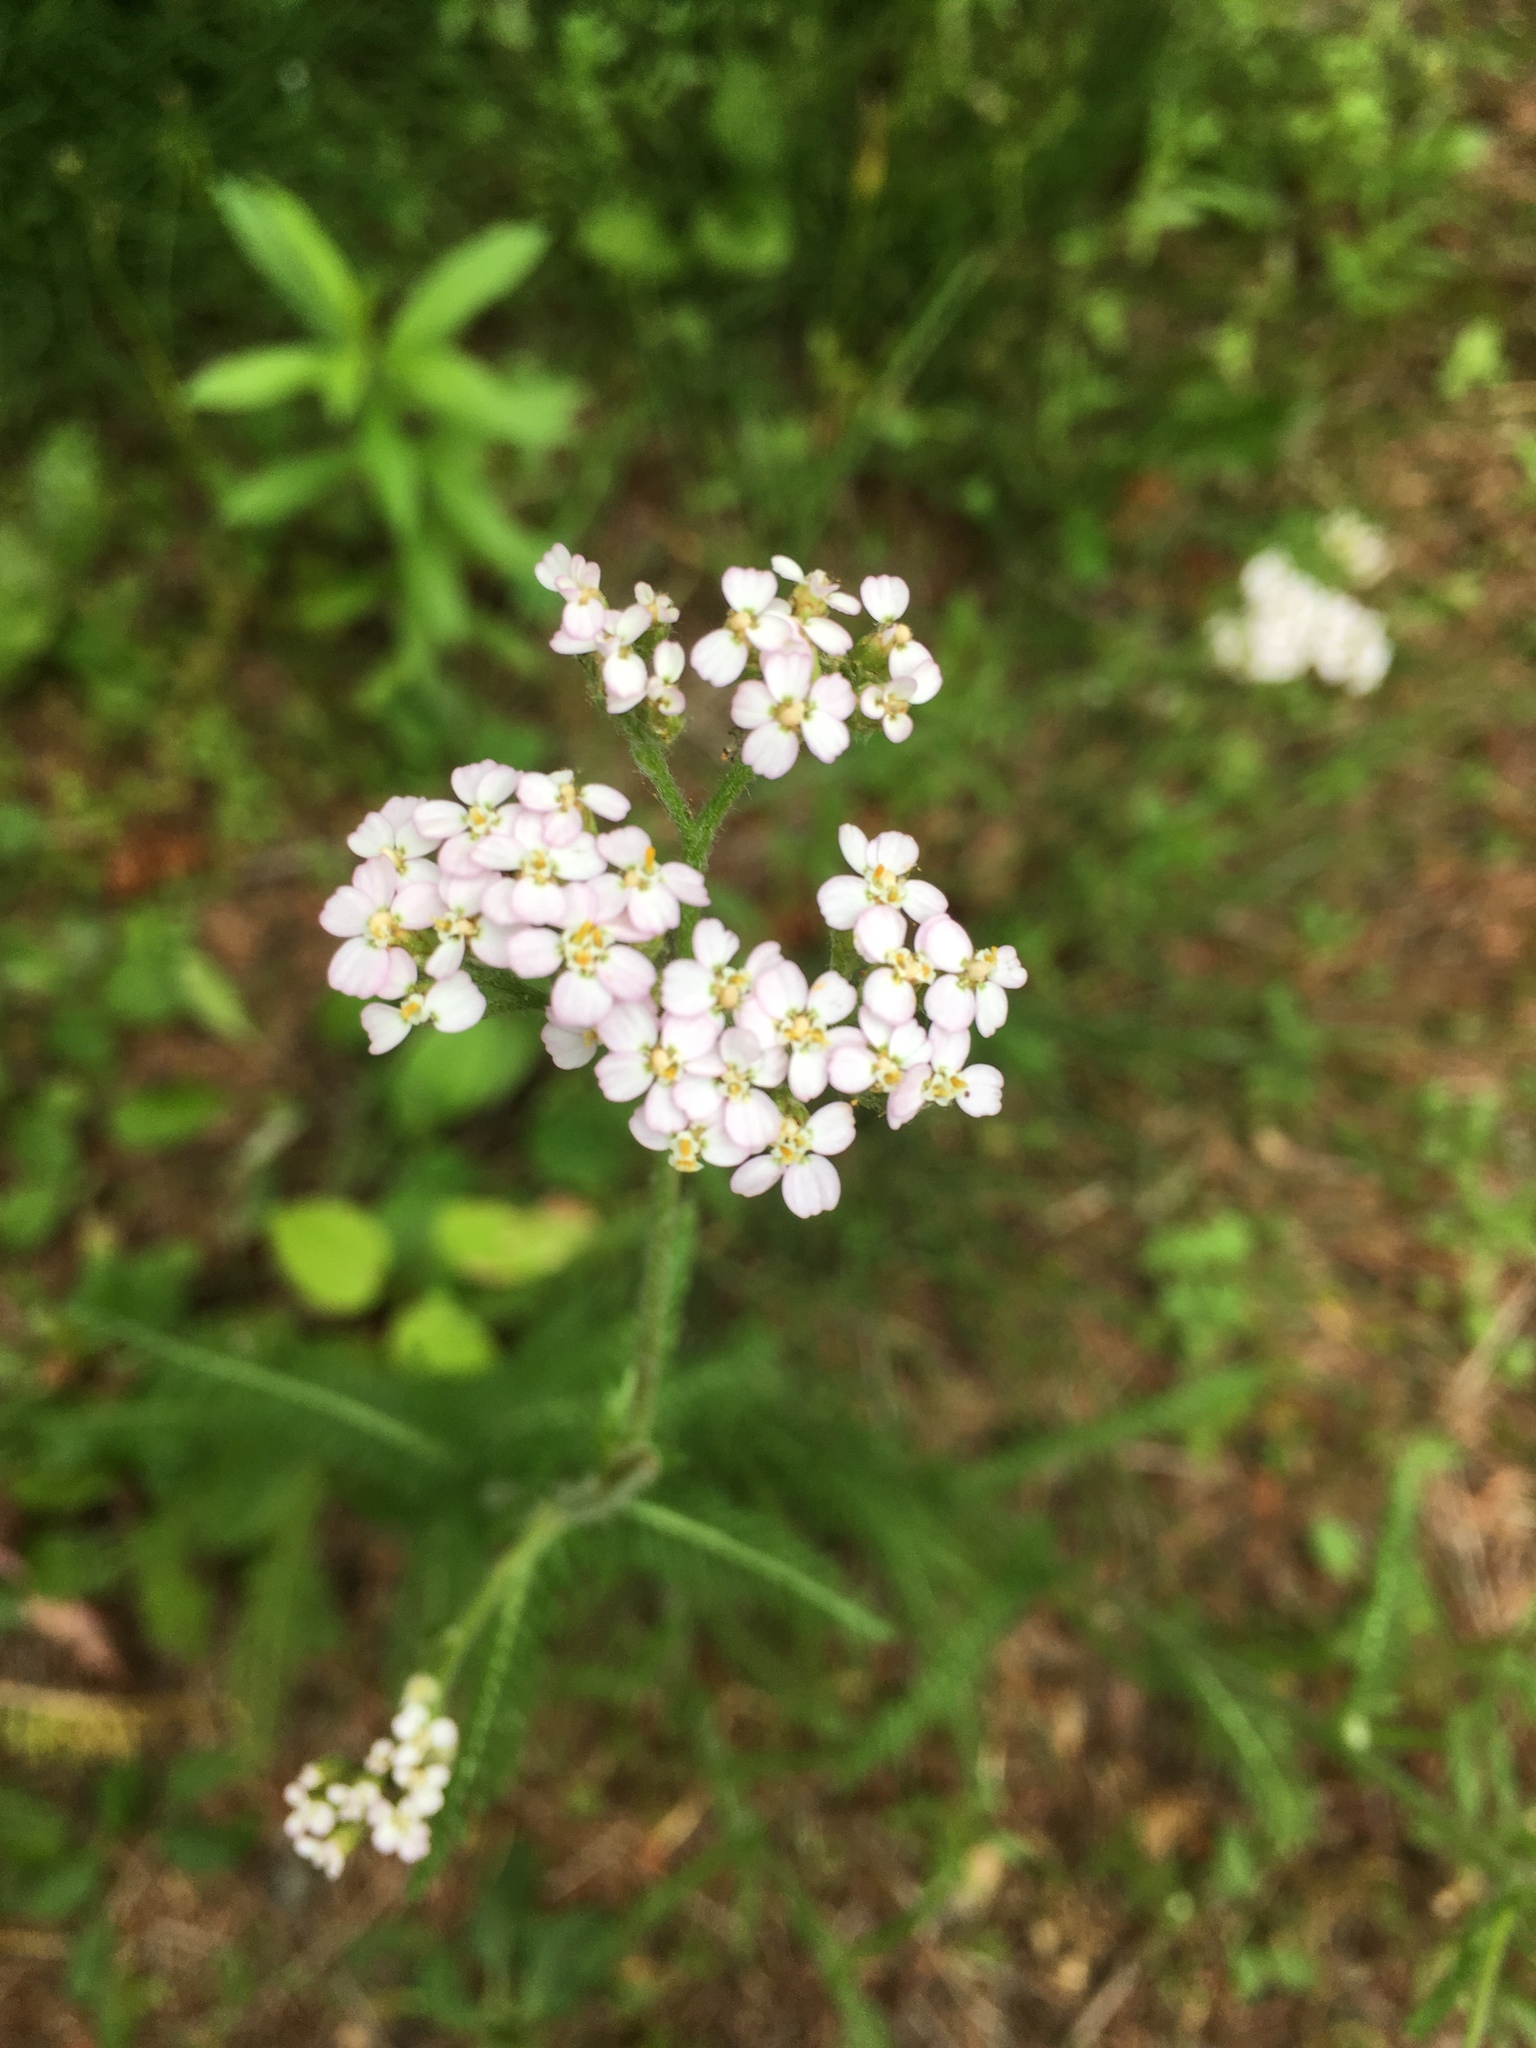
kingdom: Plantae
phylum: Tracheophyta
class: Magnoliopsida
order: Asterales
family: Asteraceae
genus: Achillea
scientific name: Achillea millefolium
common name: Yarrow
